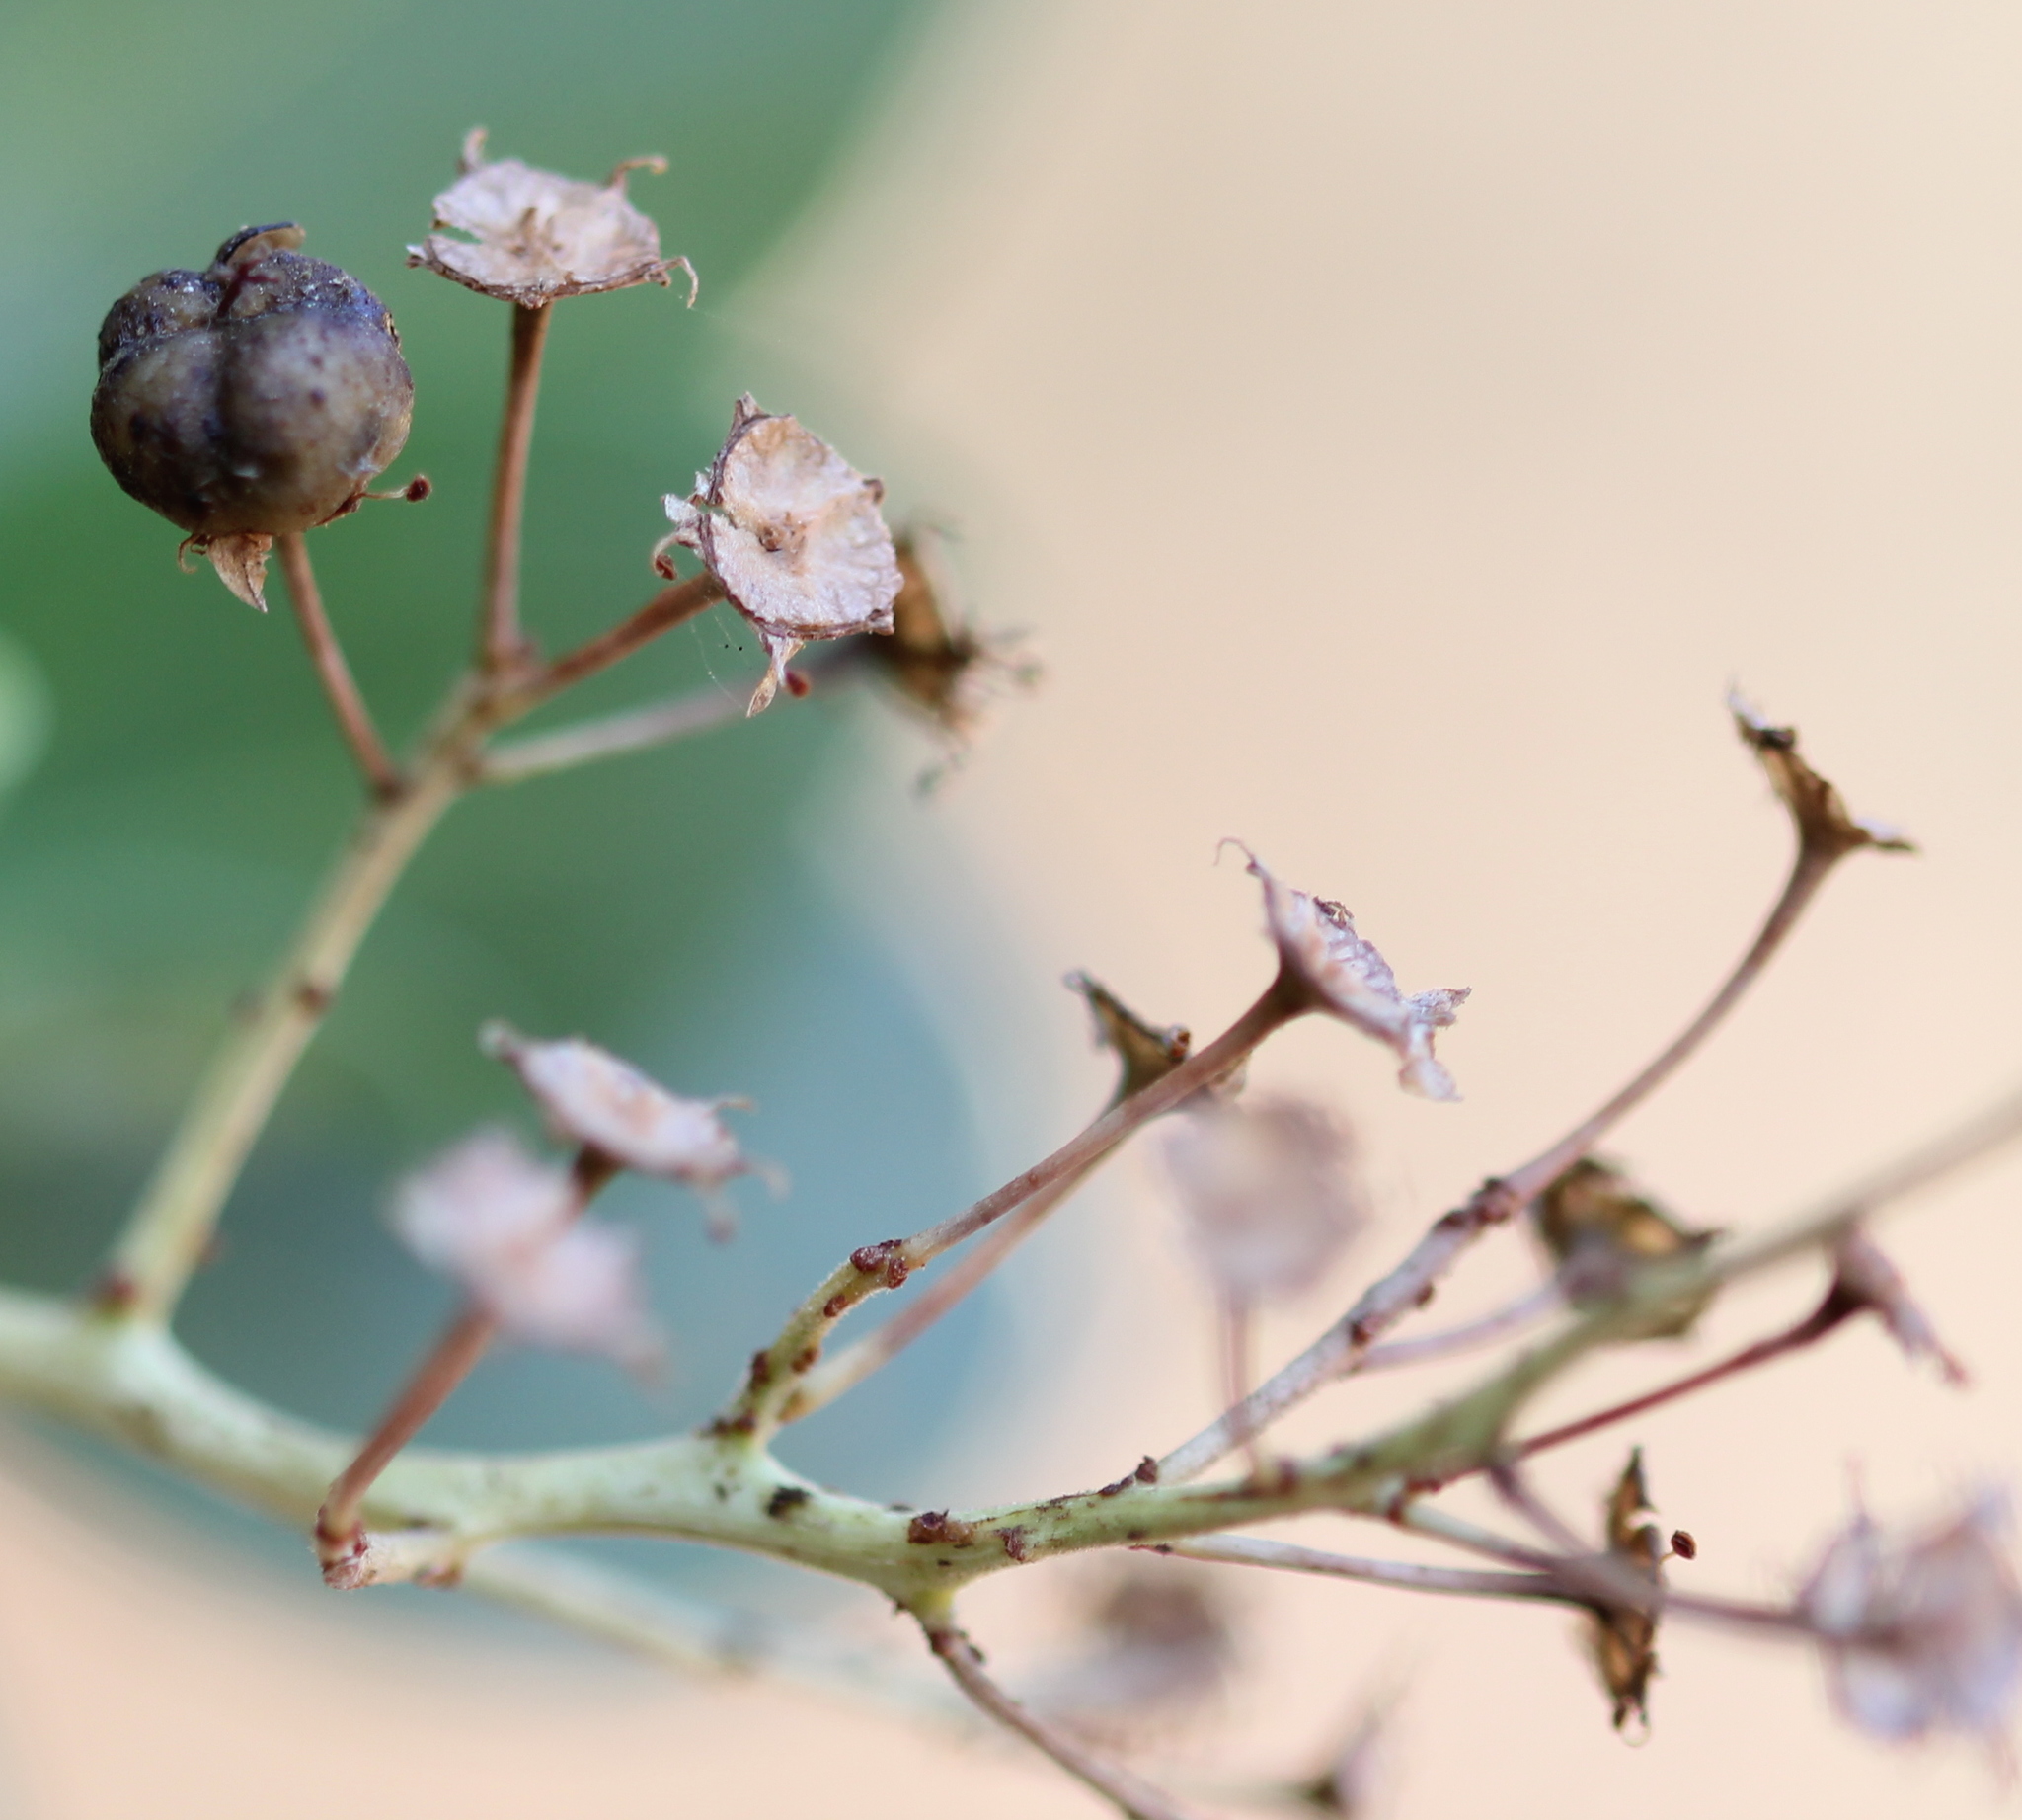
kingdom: Plantae
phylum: Tracheophyta
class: Magnoliopsida
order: Rosales
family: Rhamnaceae
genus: Ceanothus
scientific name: Ceanothus leucodermis
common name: Chaparral whitethorn
